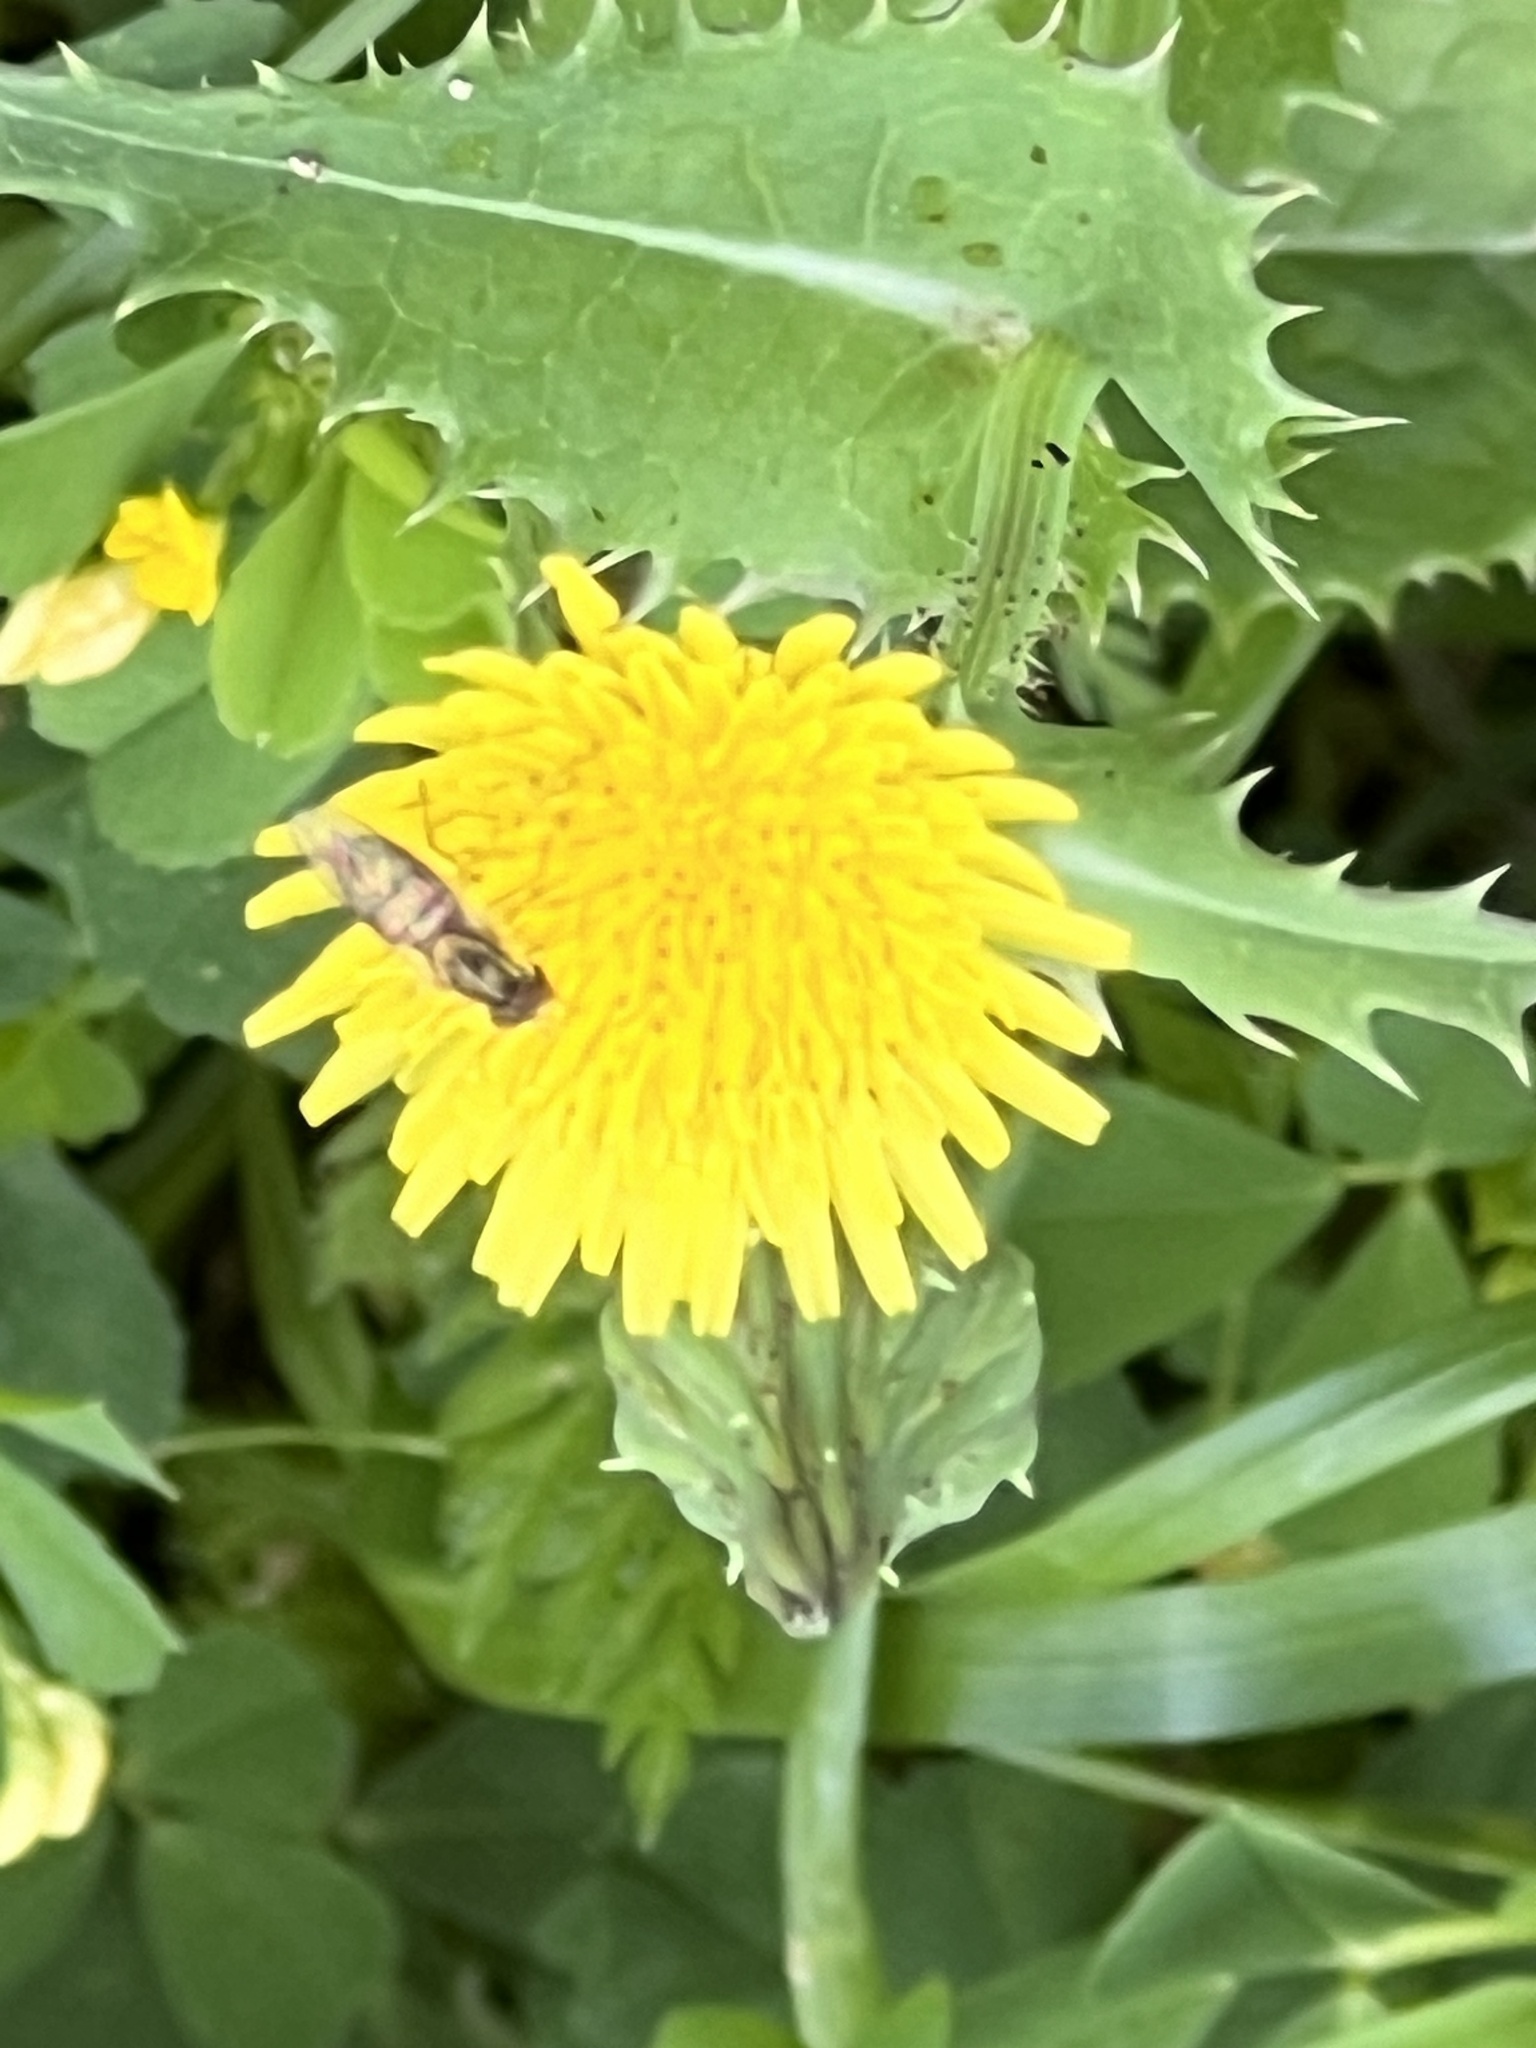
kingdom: Animalia
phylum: Arthropoda
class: Insecta
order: Diptera
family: Syrphidae
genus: Toxomerus
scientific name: Toxomerus marginatus
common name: Syrphid fly
